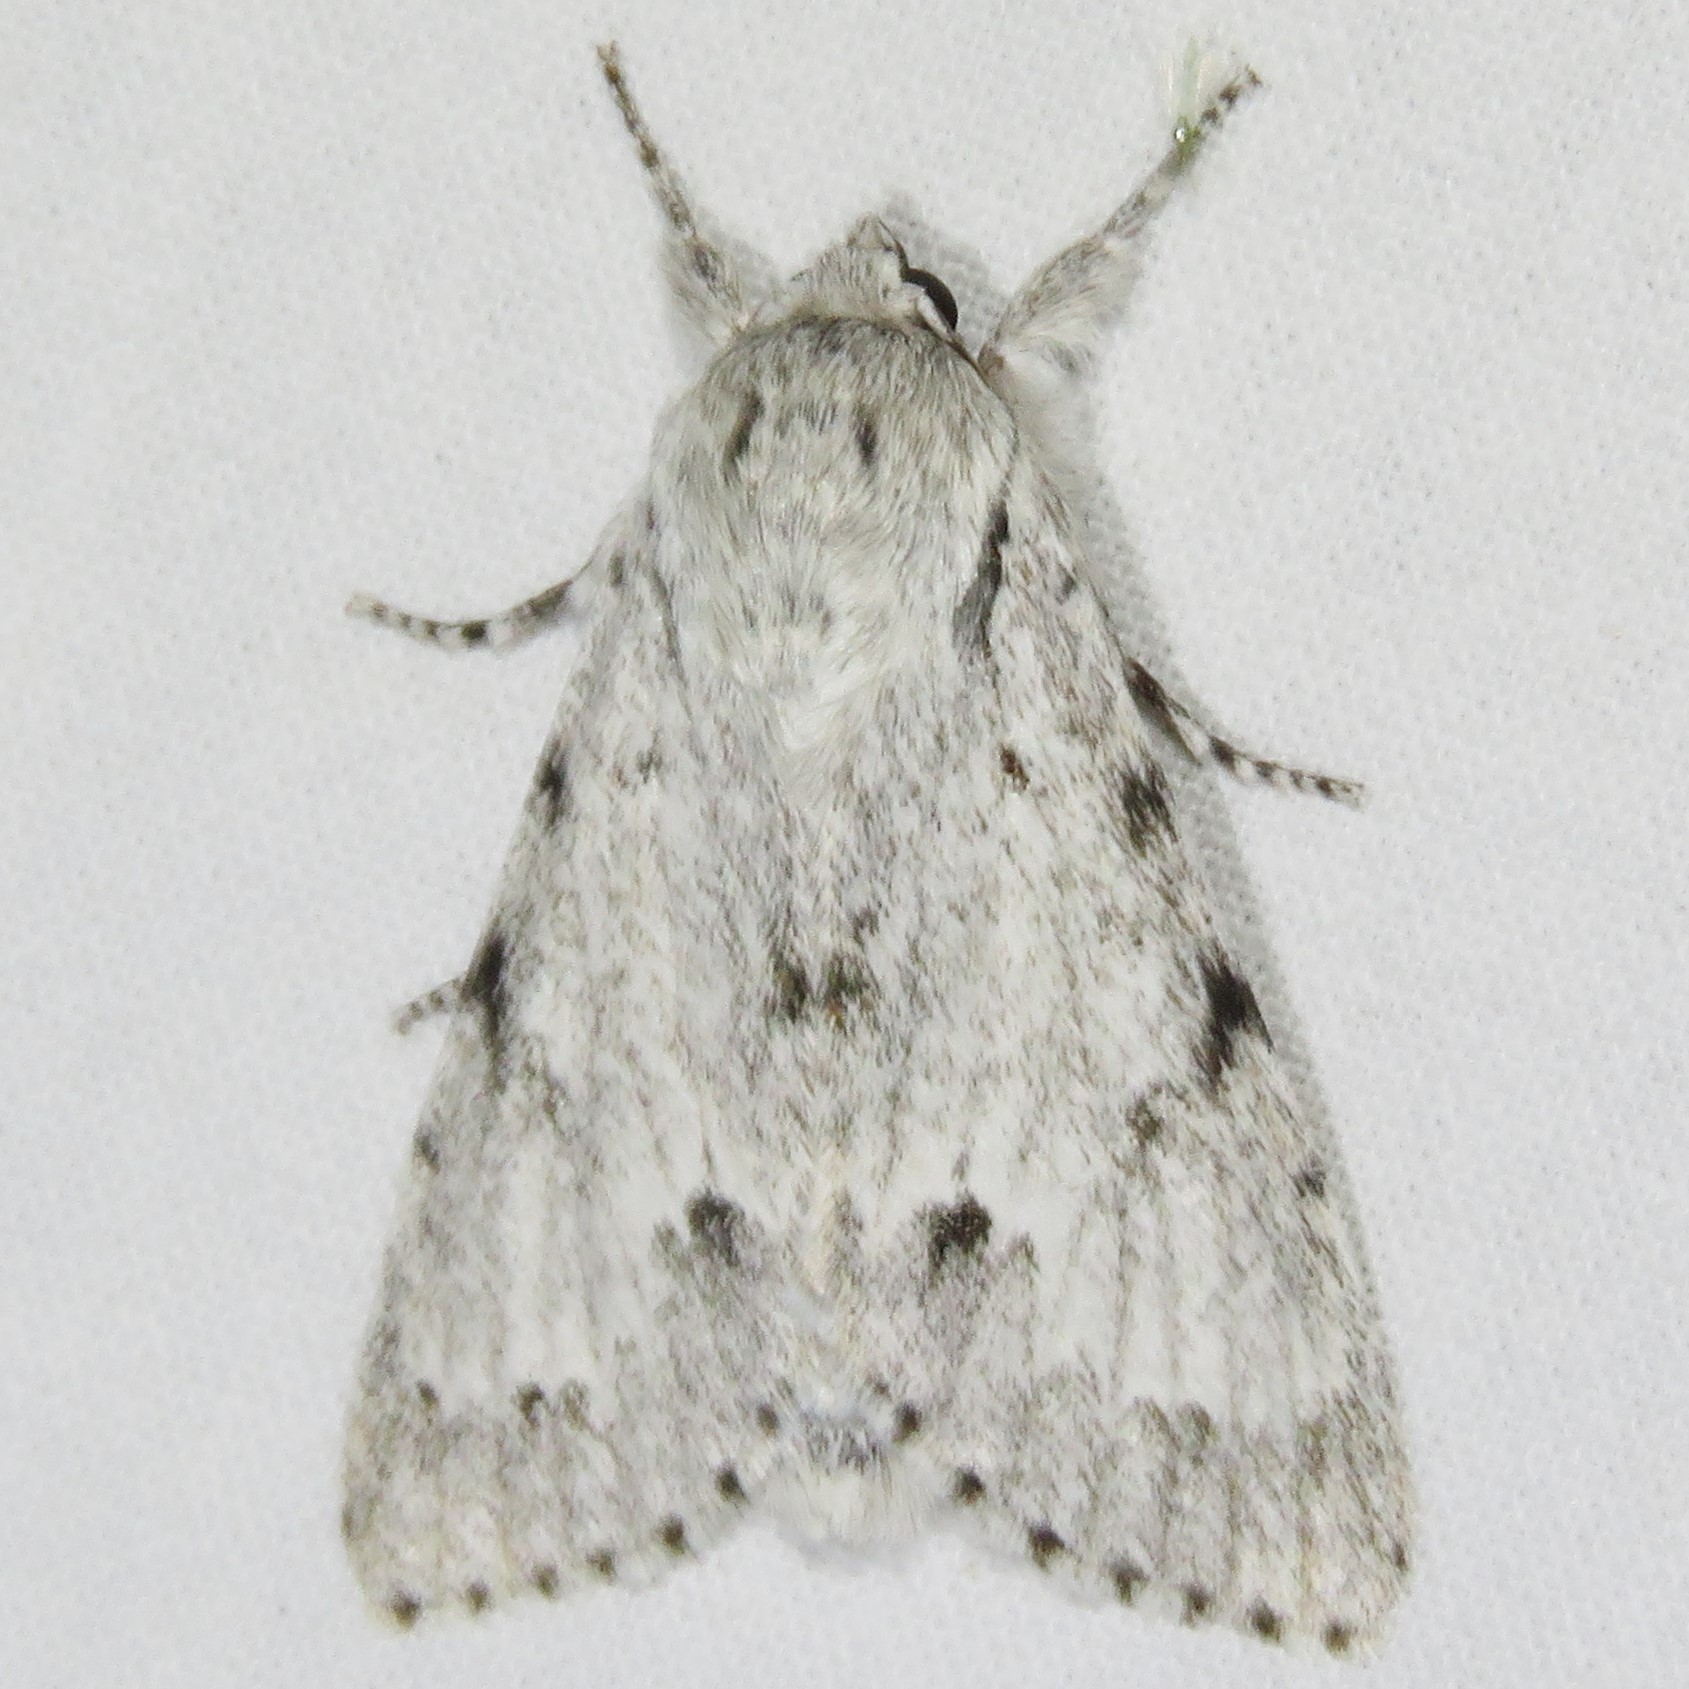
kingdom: Animalia
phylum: Arthropoda
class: Insecta
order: Lepidoptera
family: Noctuidae
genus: Acronicta
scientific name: Acronicta lepusculina
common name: Cottonwood dagger
